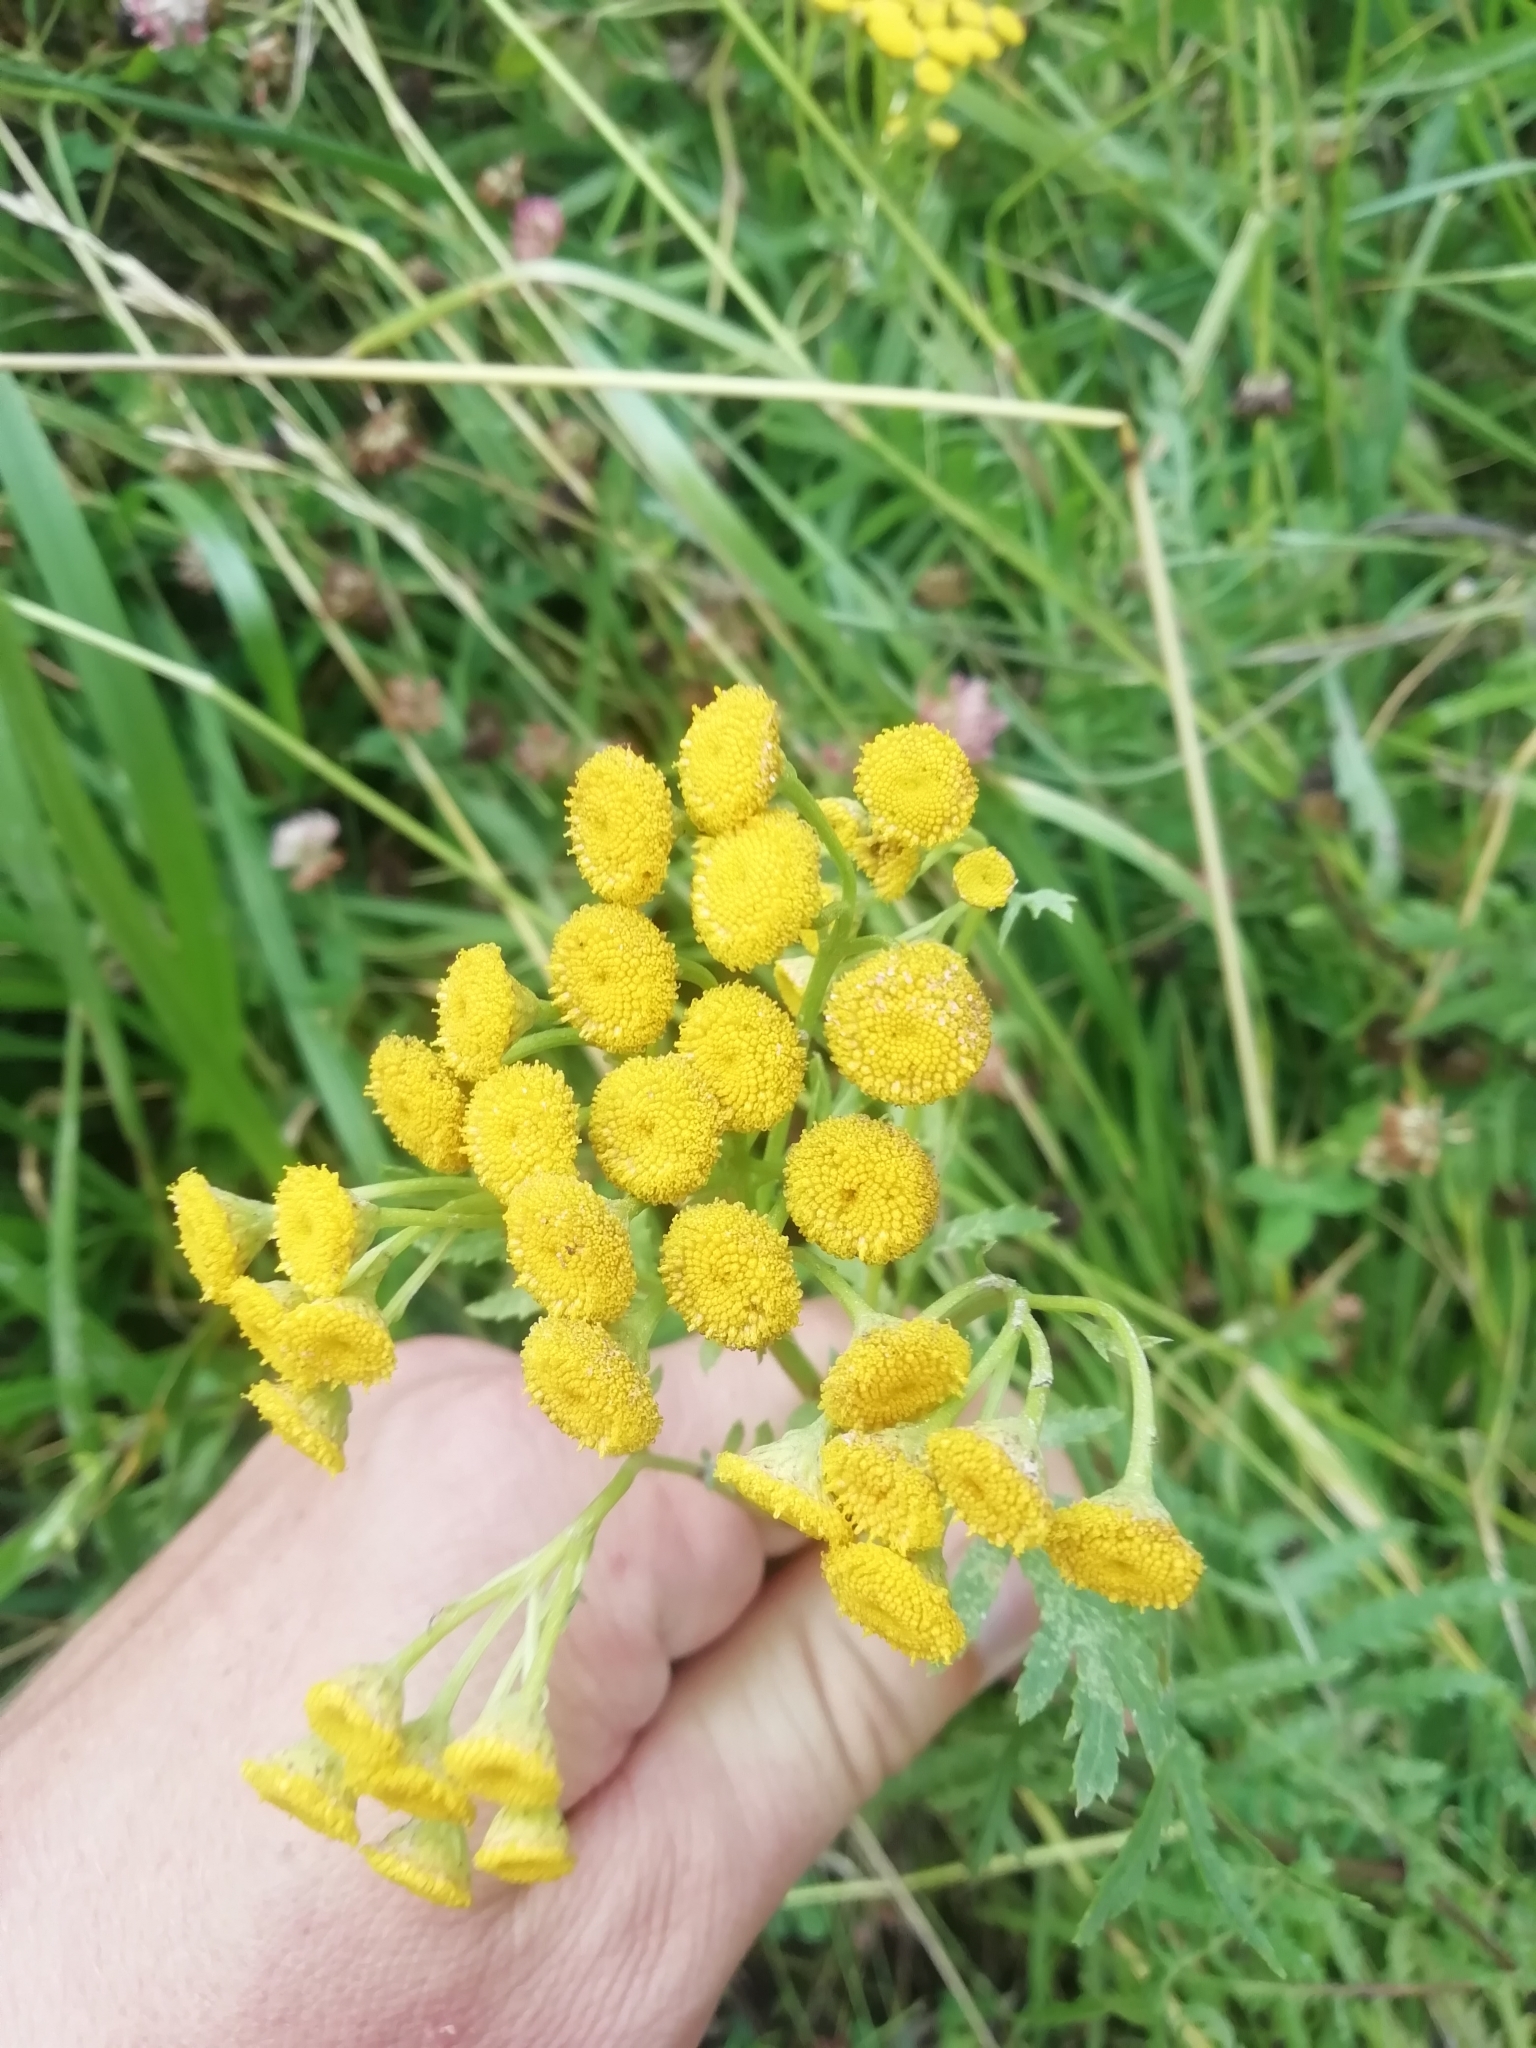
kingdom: Plantae
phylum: Tracheophyta
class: Magnoliopsida
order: Asterales
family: Asteraceae
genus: Tanacetum
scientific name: Tanacetum vulgare
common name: Common tansy
